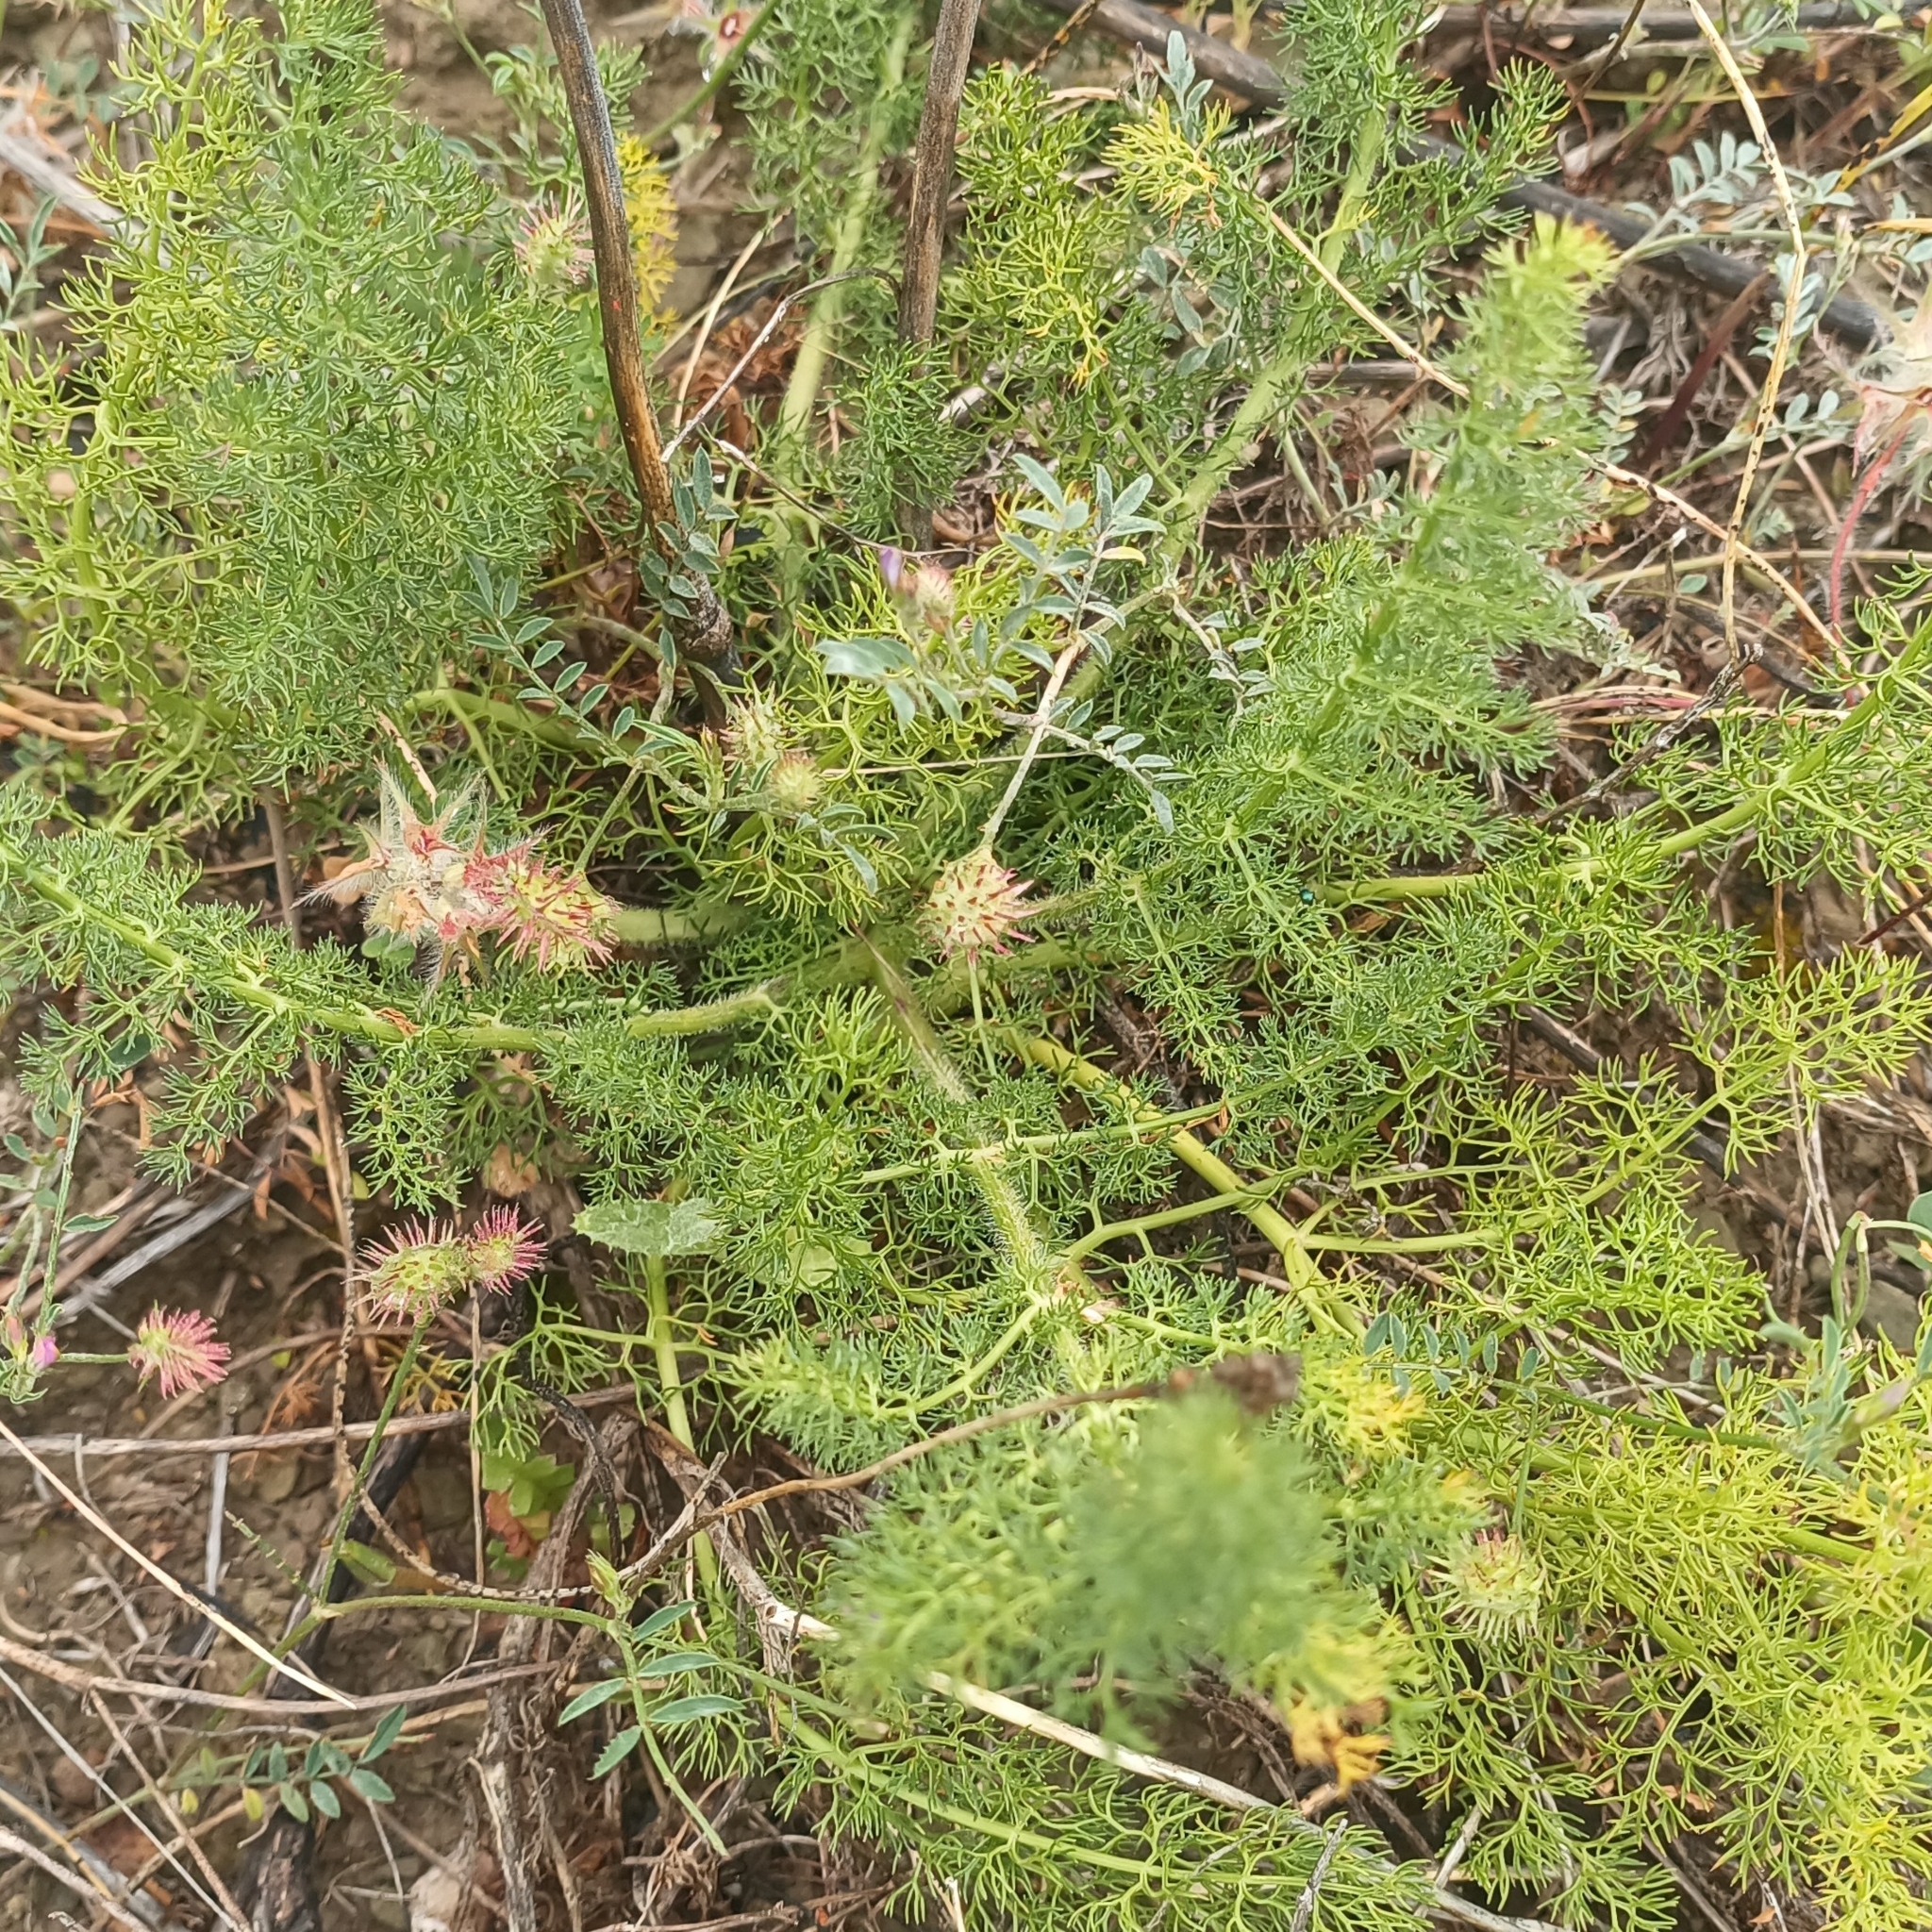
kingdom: Plantae
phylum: Tracheophyta
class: Magnoliopsida
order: Apiales
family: Apiaceae
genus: Thapsia
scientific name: Thapsia meoides
